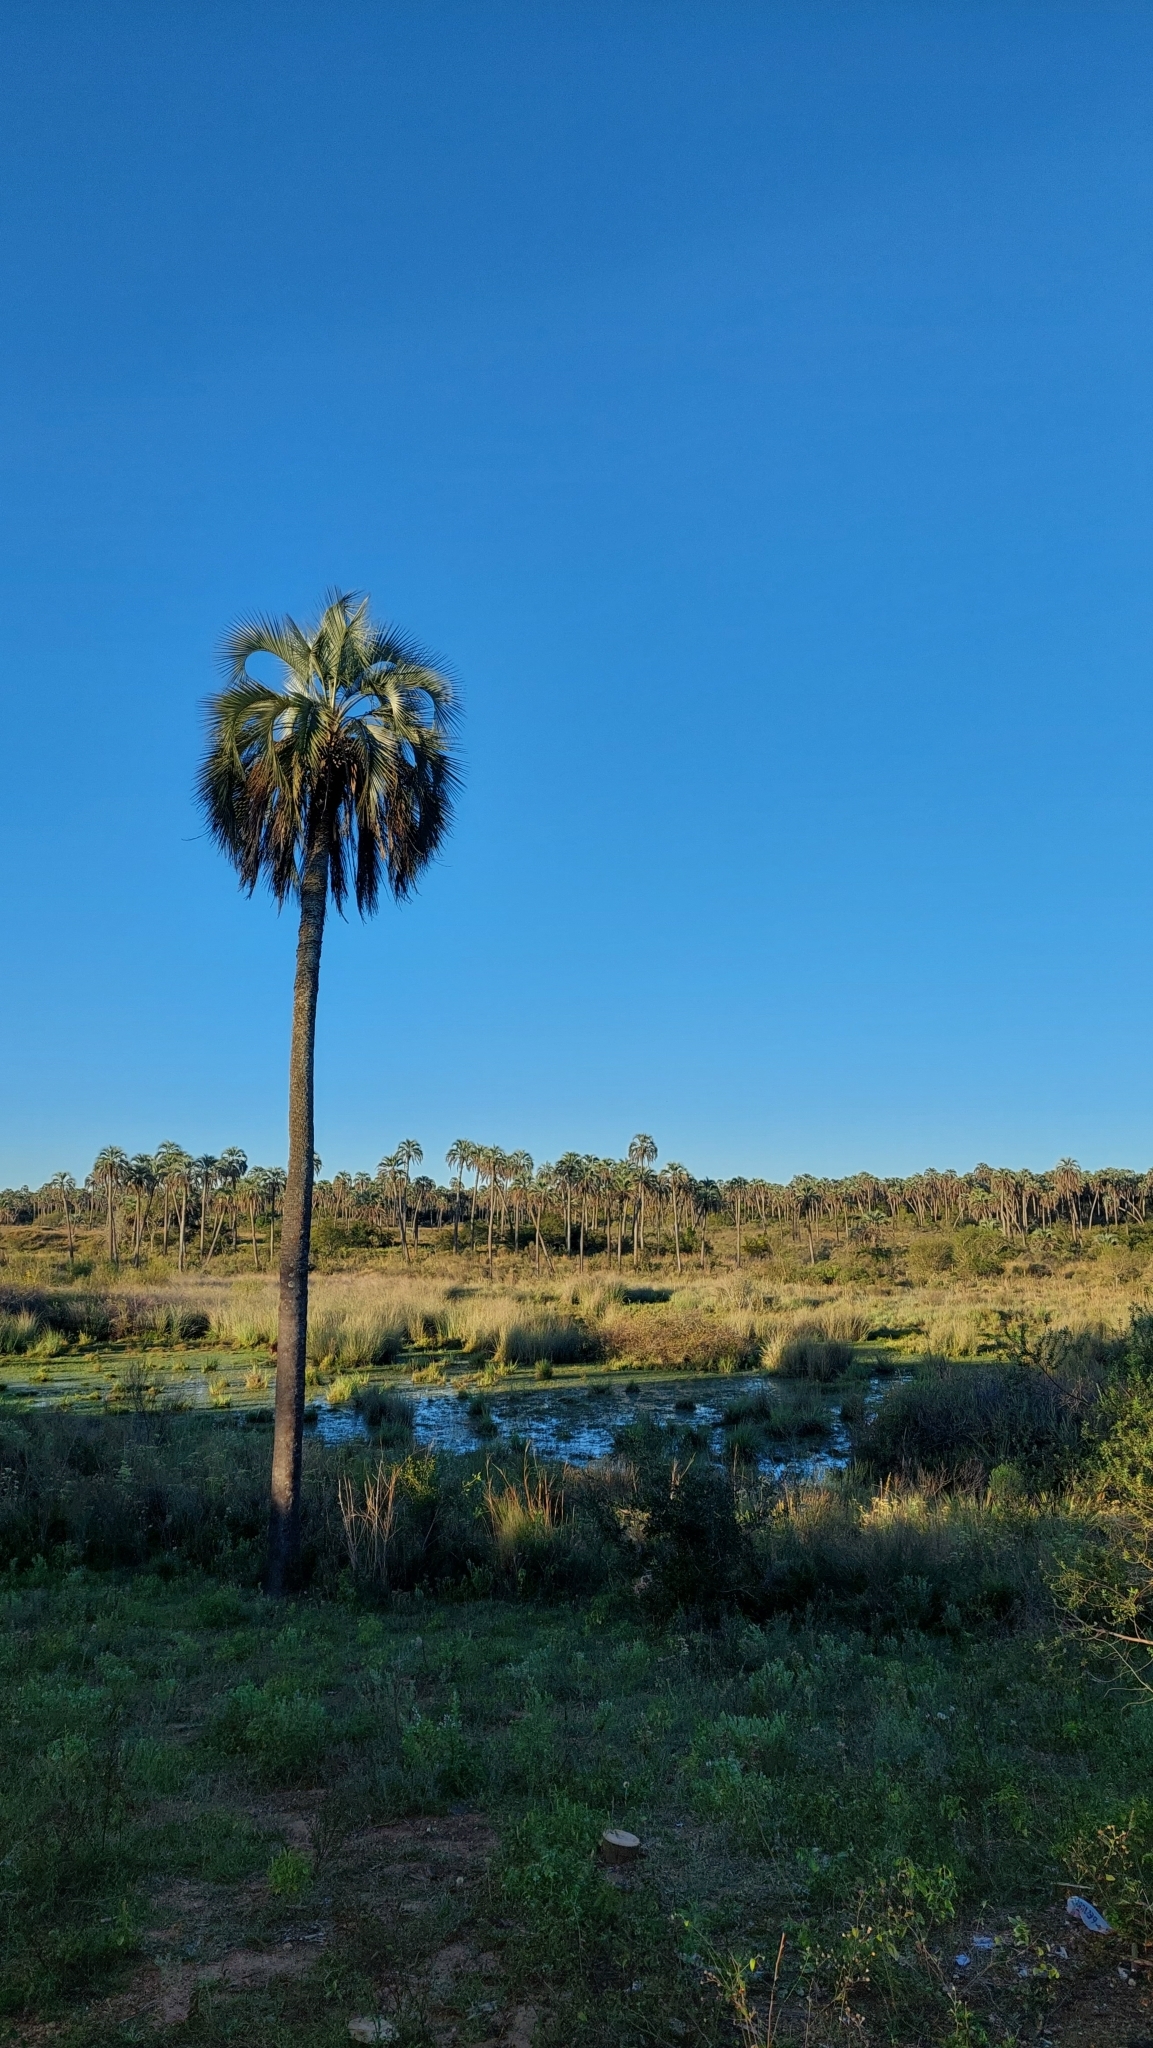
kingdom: Plantae
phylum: Tracheophyta
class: Liliopsida
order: Arecales
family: Arecaceae
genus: Butia
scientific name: Butia yatay
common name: Yatay palm
